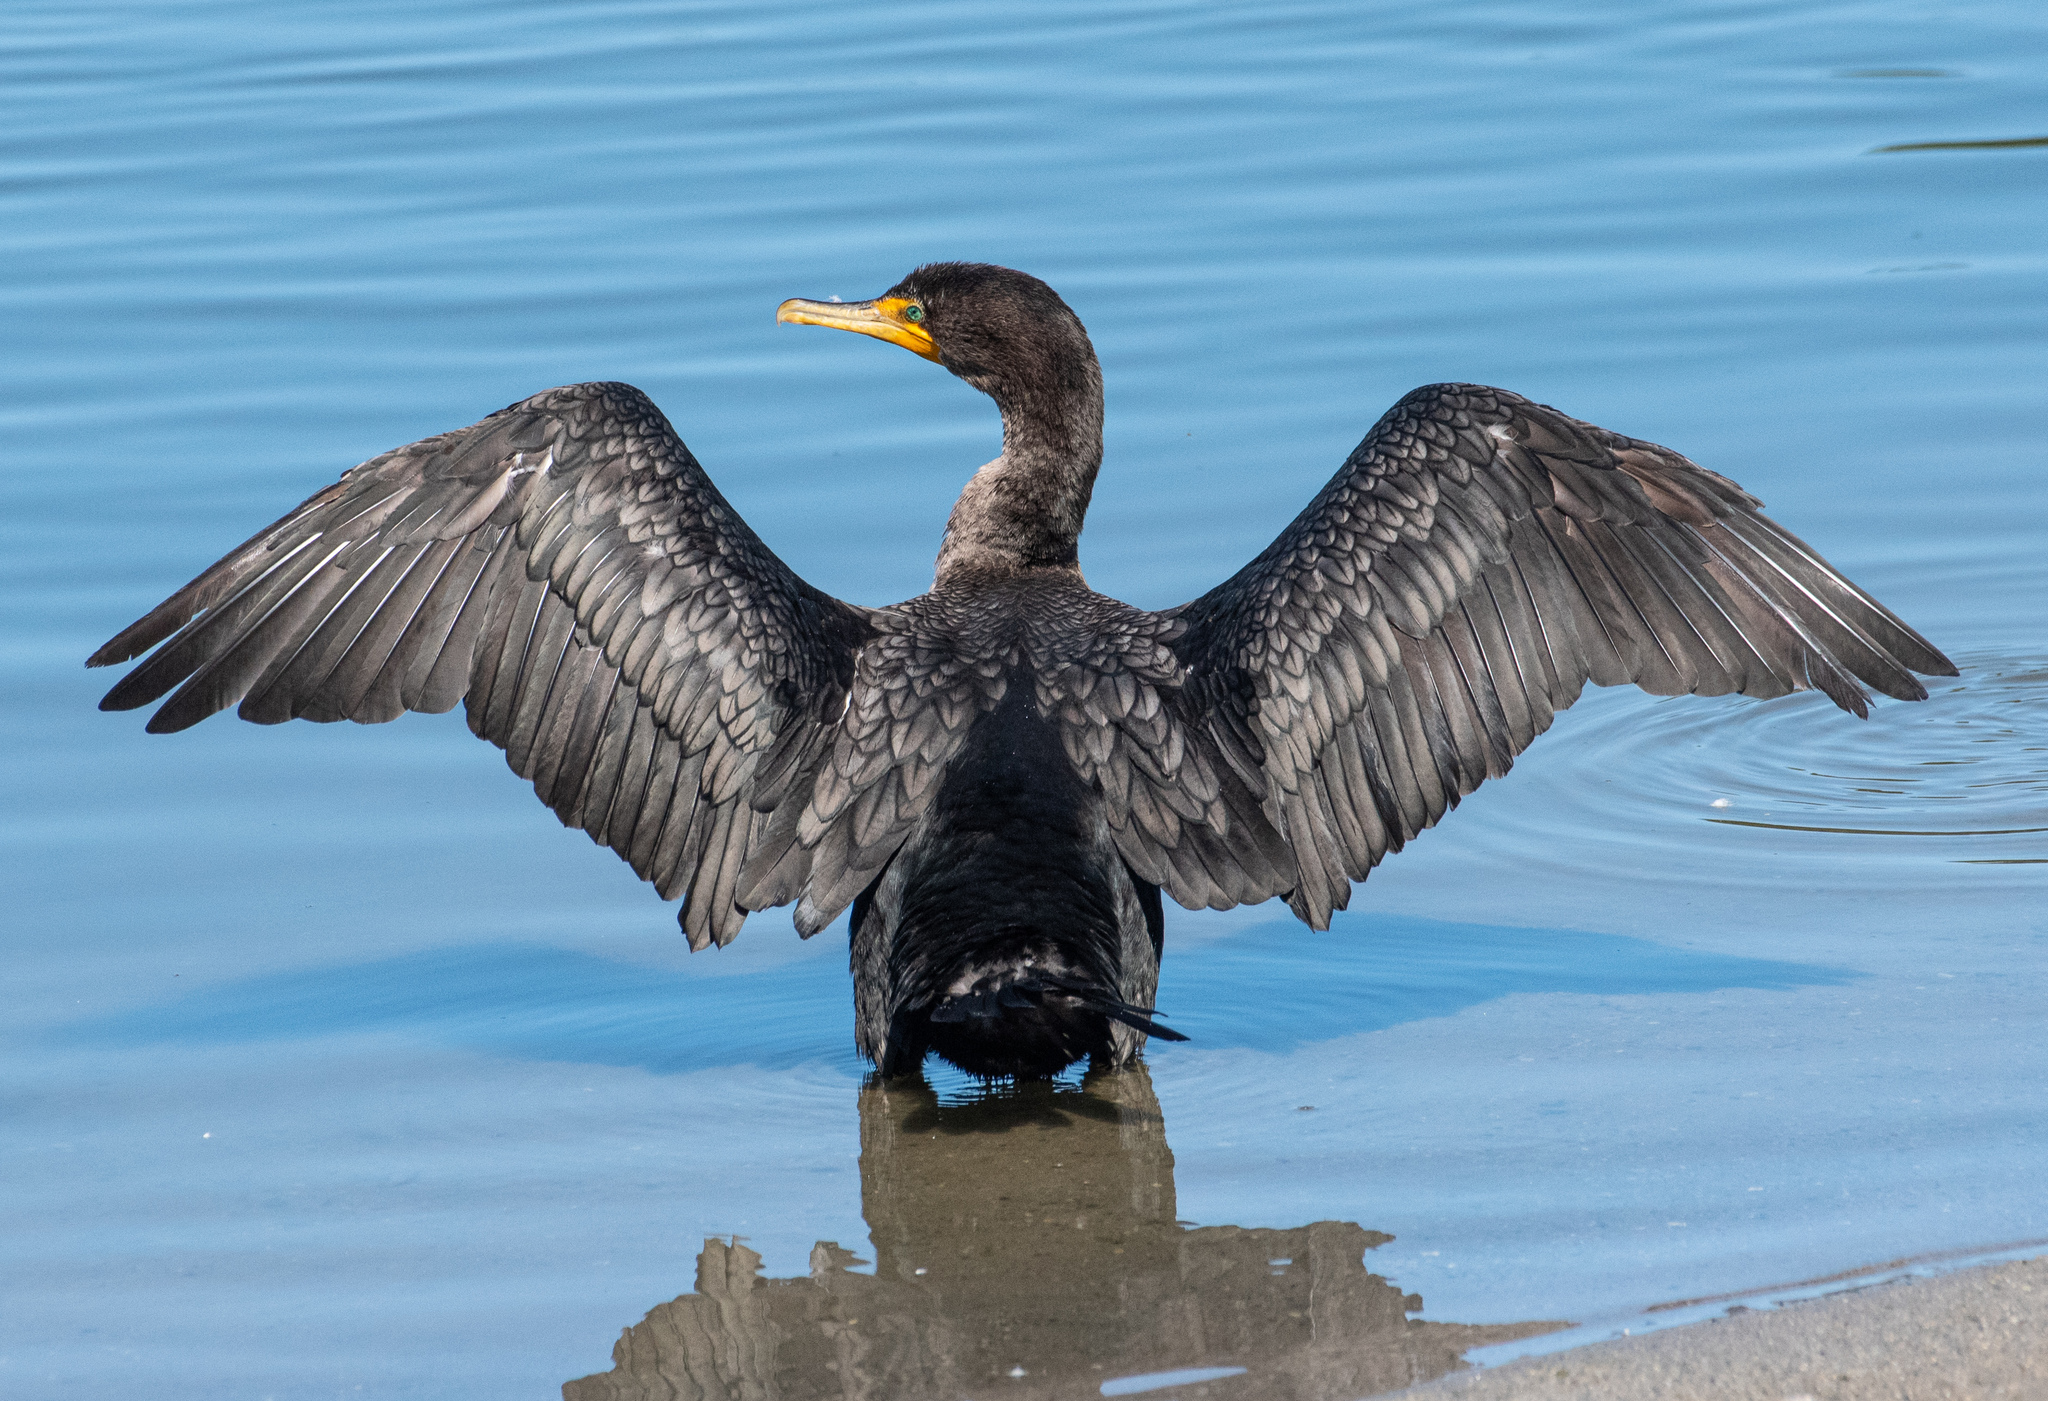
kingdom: Animalia
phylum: Chordata
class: Aves
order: Suliformes
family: Phalacrocoracidae
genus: Phalacrocorax
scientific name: Phalacrocorax auritus
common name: Double-crested cormorant
